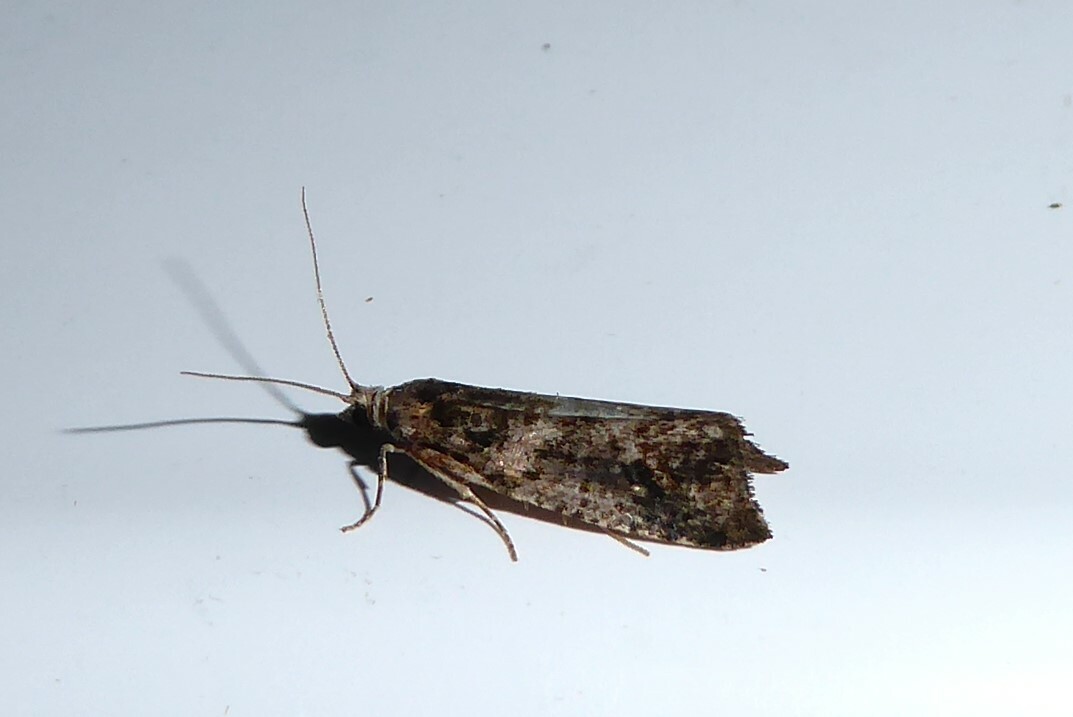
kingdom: Animalia
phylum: Arthropoda
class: Insecta
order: Lepidoptera
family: Tortricidae
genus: Prothelymna
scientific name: Prothelymna antiquana
